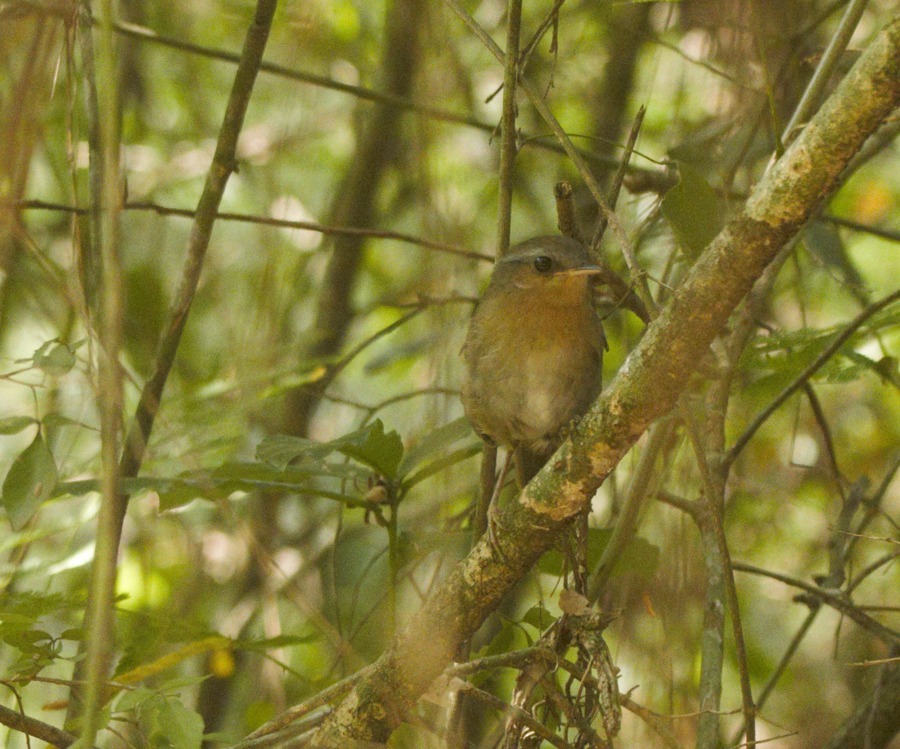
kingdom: Animalia
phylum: Chordata
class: Aves
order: Passeriformes
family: Conopophagidae
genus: Conopophaga
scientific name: Conopophaga lineata
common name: Rufous gnateater
